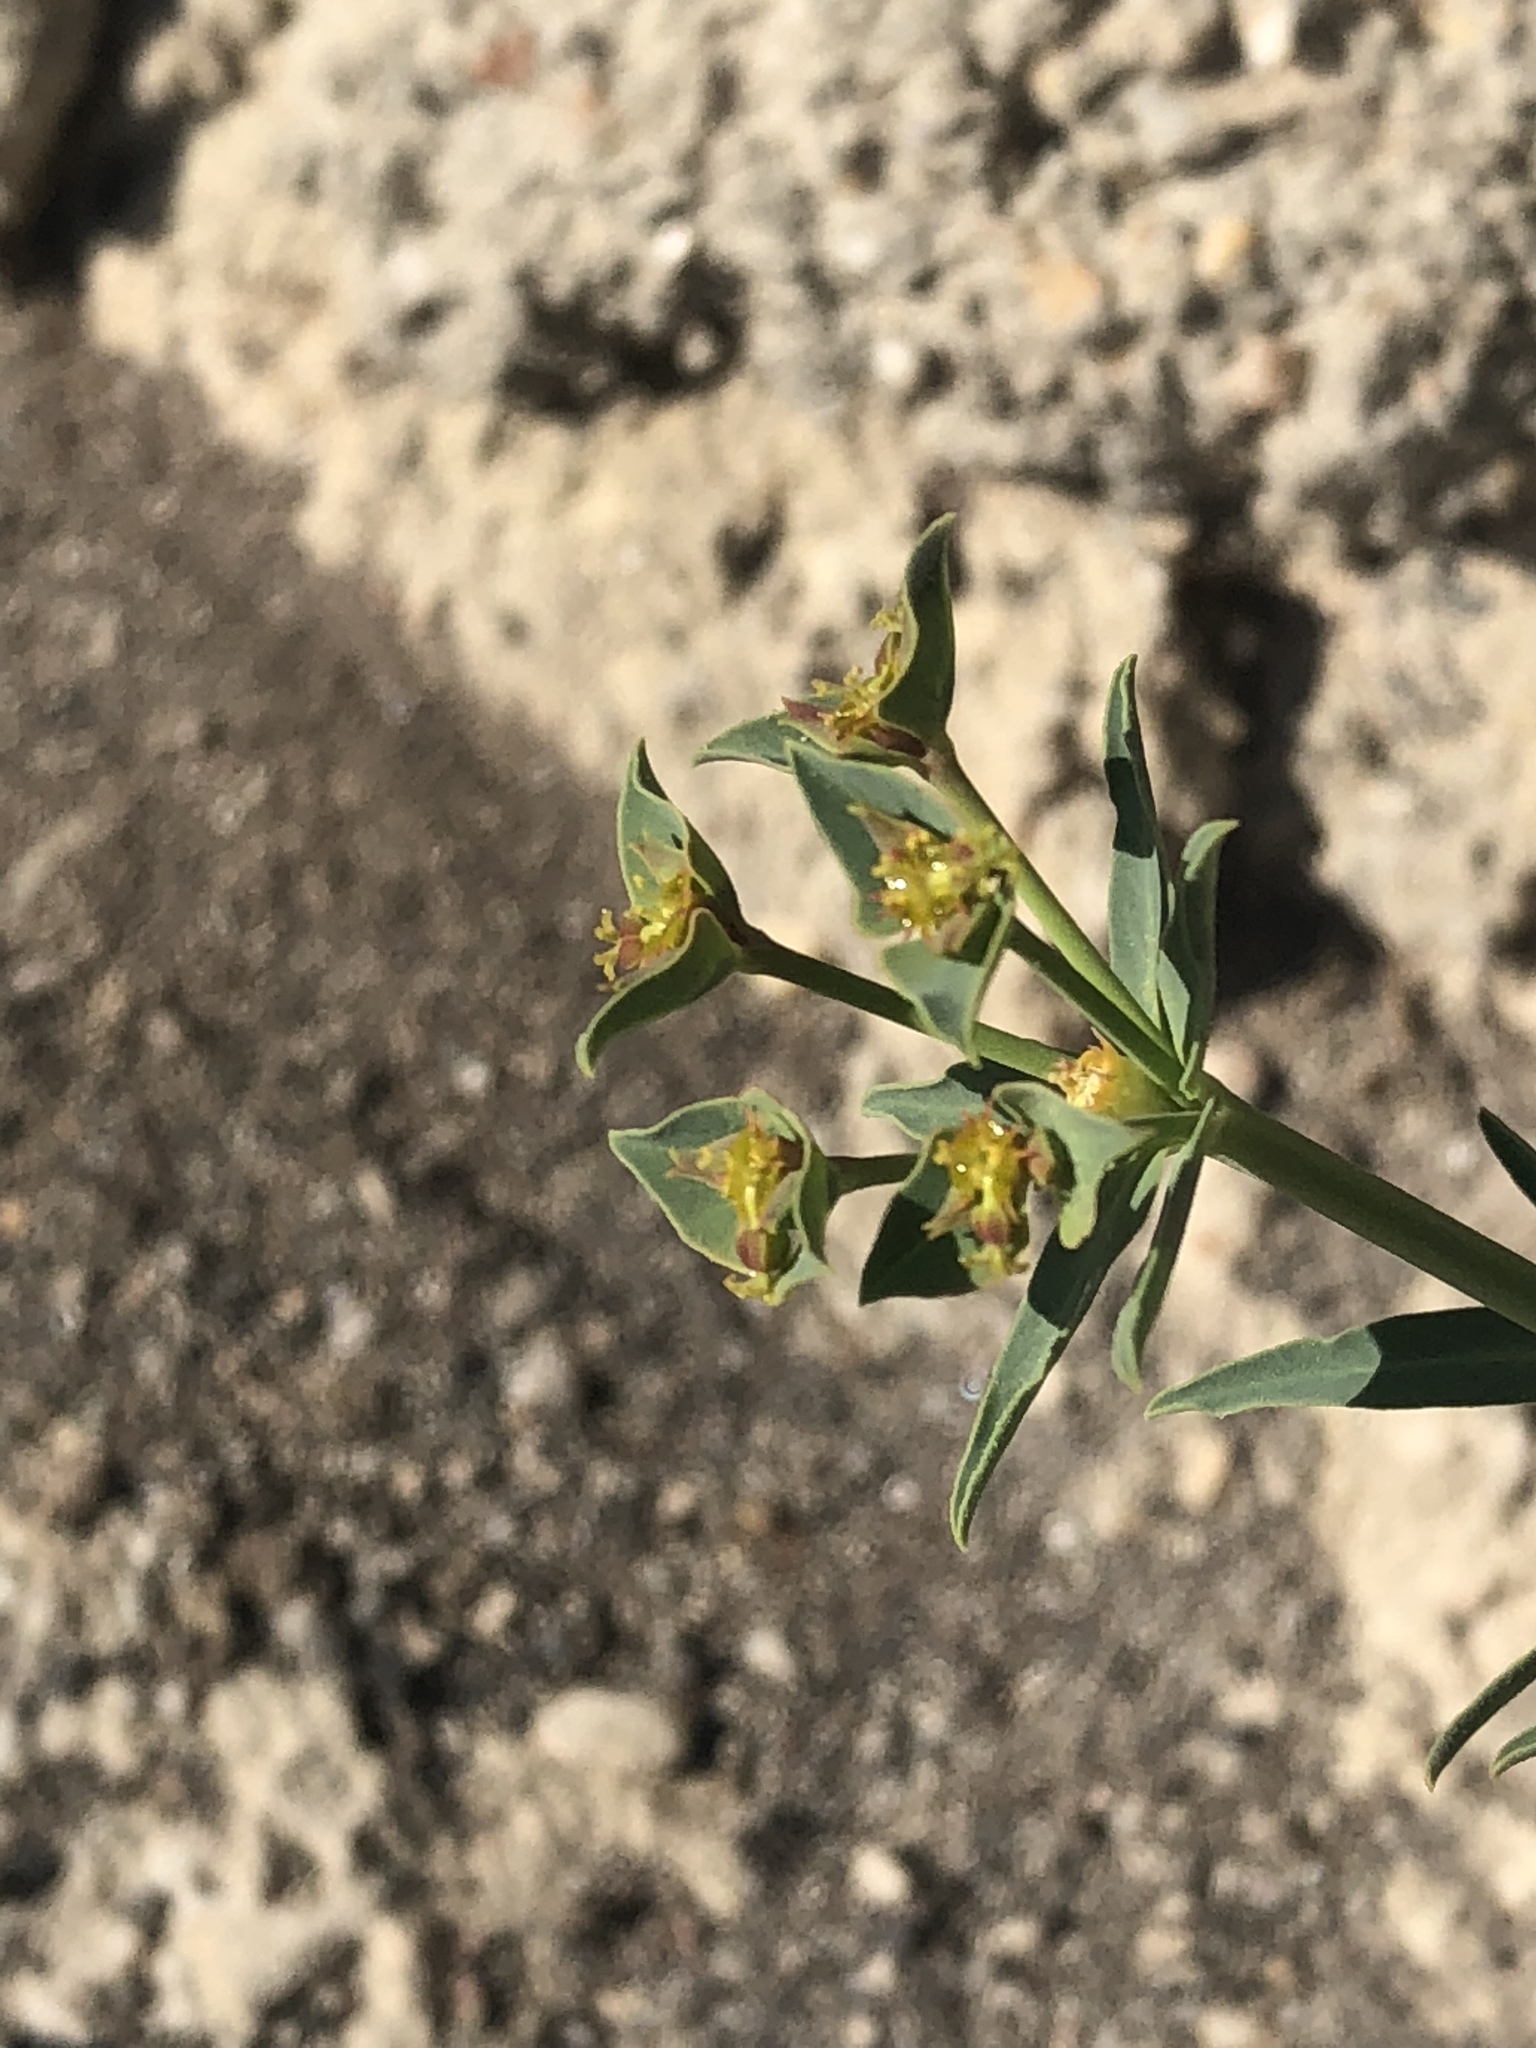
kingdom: Plantae
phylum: Tracheophyta
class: Magnoliopsida
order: Malpighiales
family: Euphorbiaceae
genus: Euphorbia
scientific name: Euphorbia terracina
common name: Geraldton carnation weed
